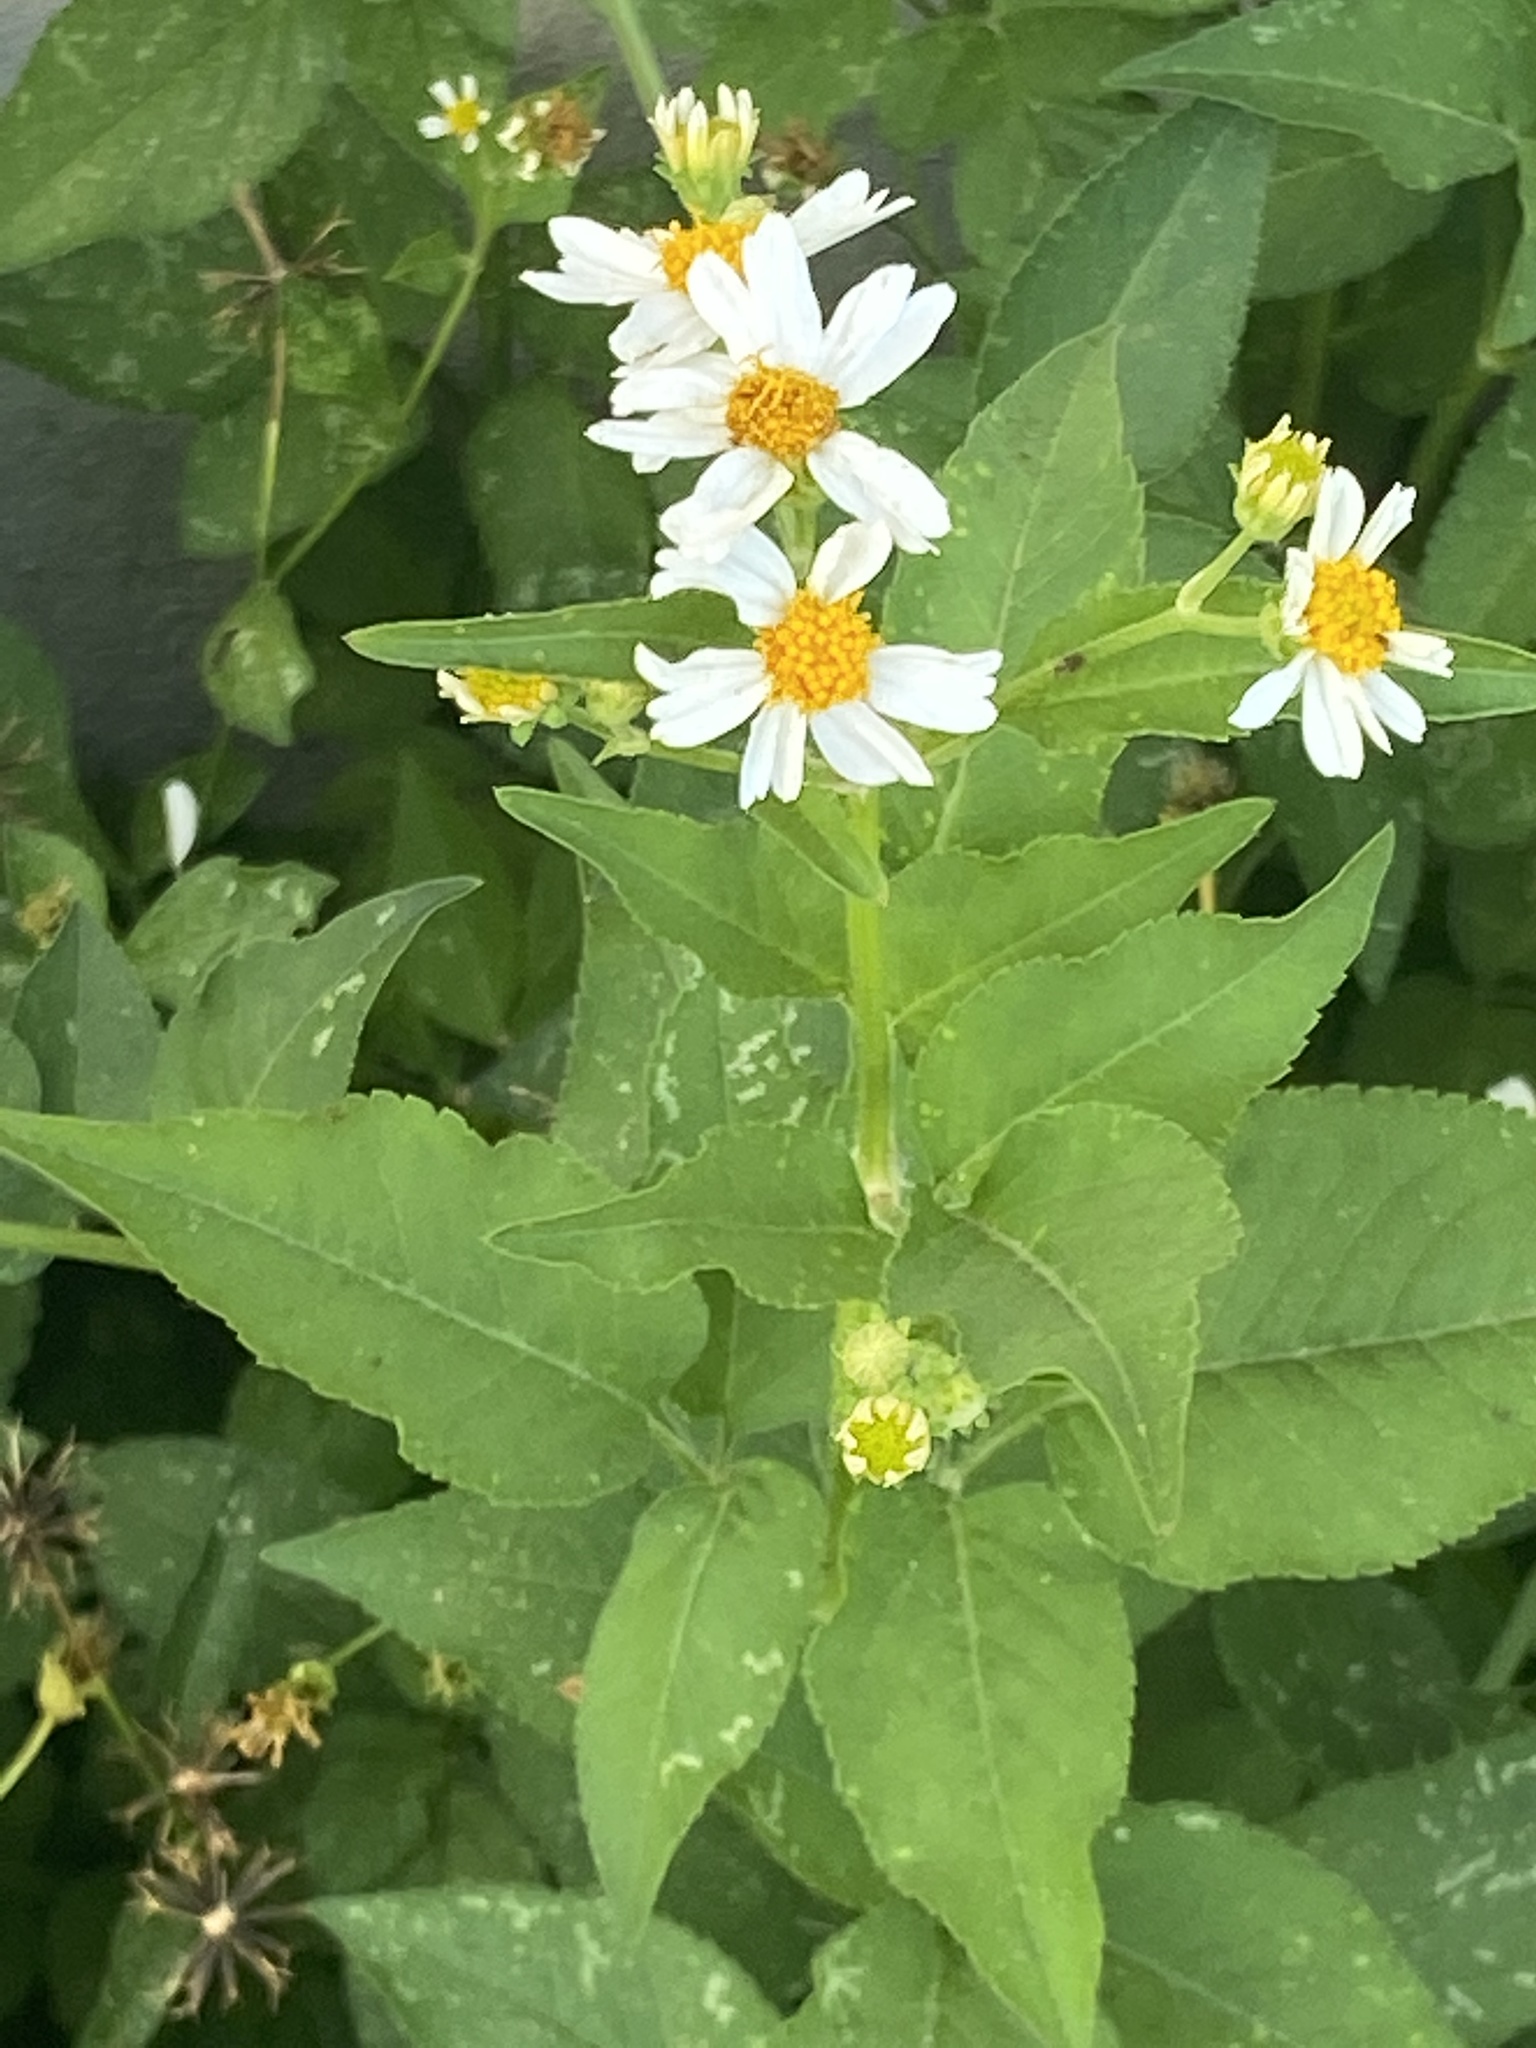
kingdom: Plantae
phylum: Tracheophyta
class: Magnoliopsida
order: Asterales
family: Asteraceae
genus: Bidens
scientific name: Bidens alba
